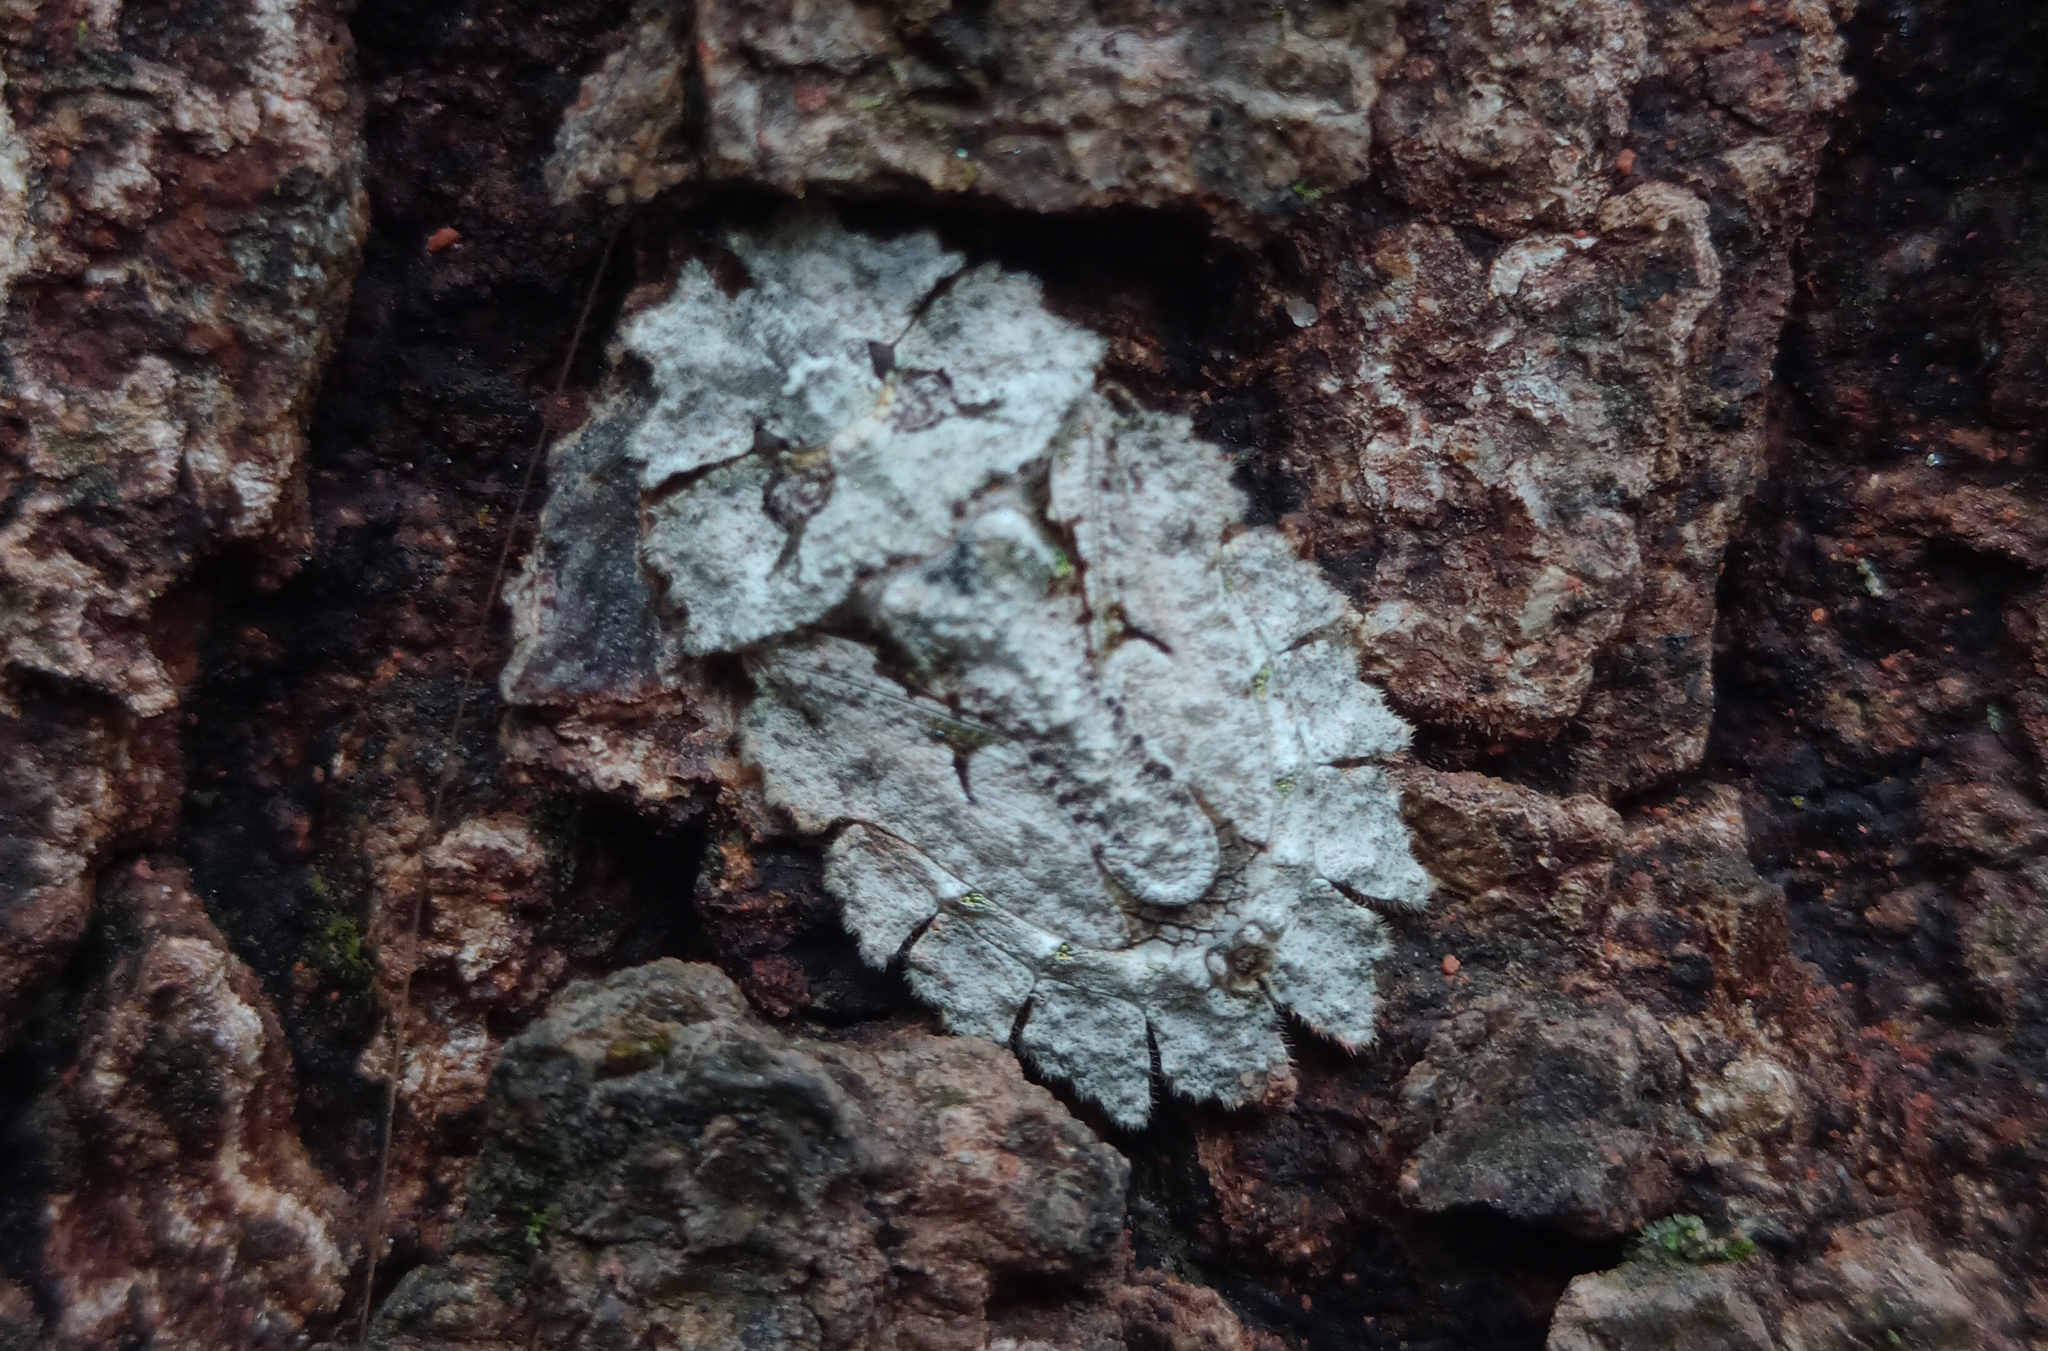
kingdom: Animalia
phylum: Arthropoda
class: Insecta
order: Hemiptera
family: Phloeidae
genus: Phloeophana
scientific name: Phloeophana longirostris
